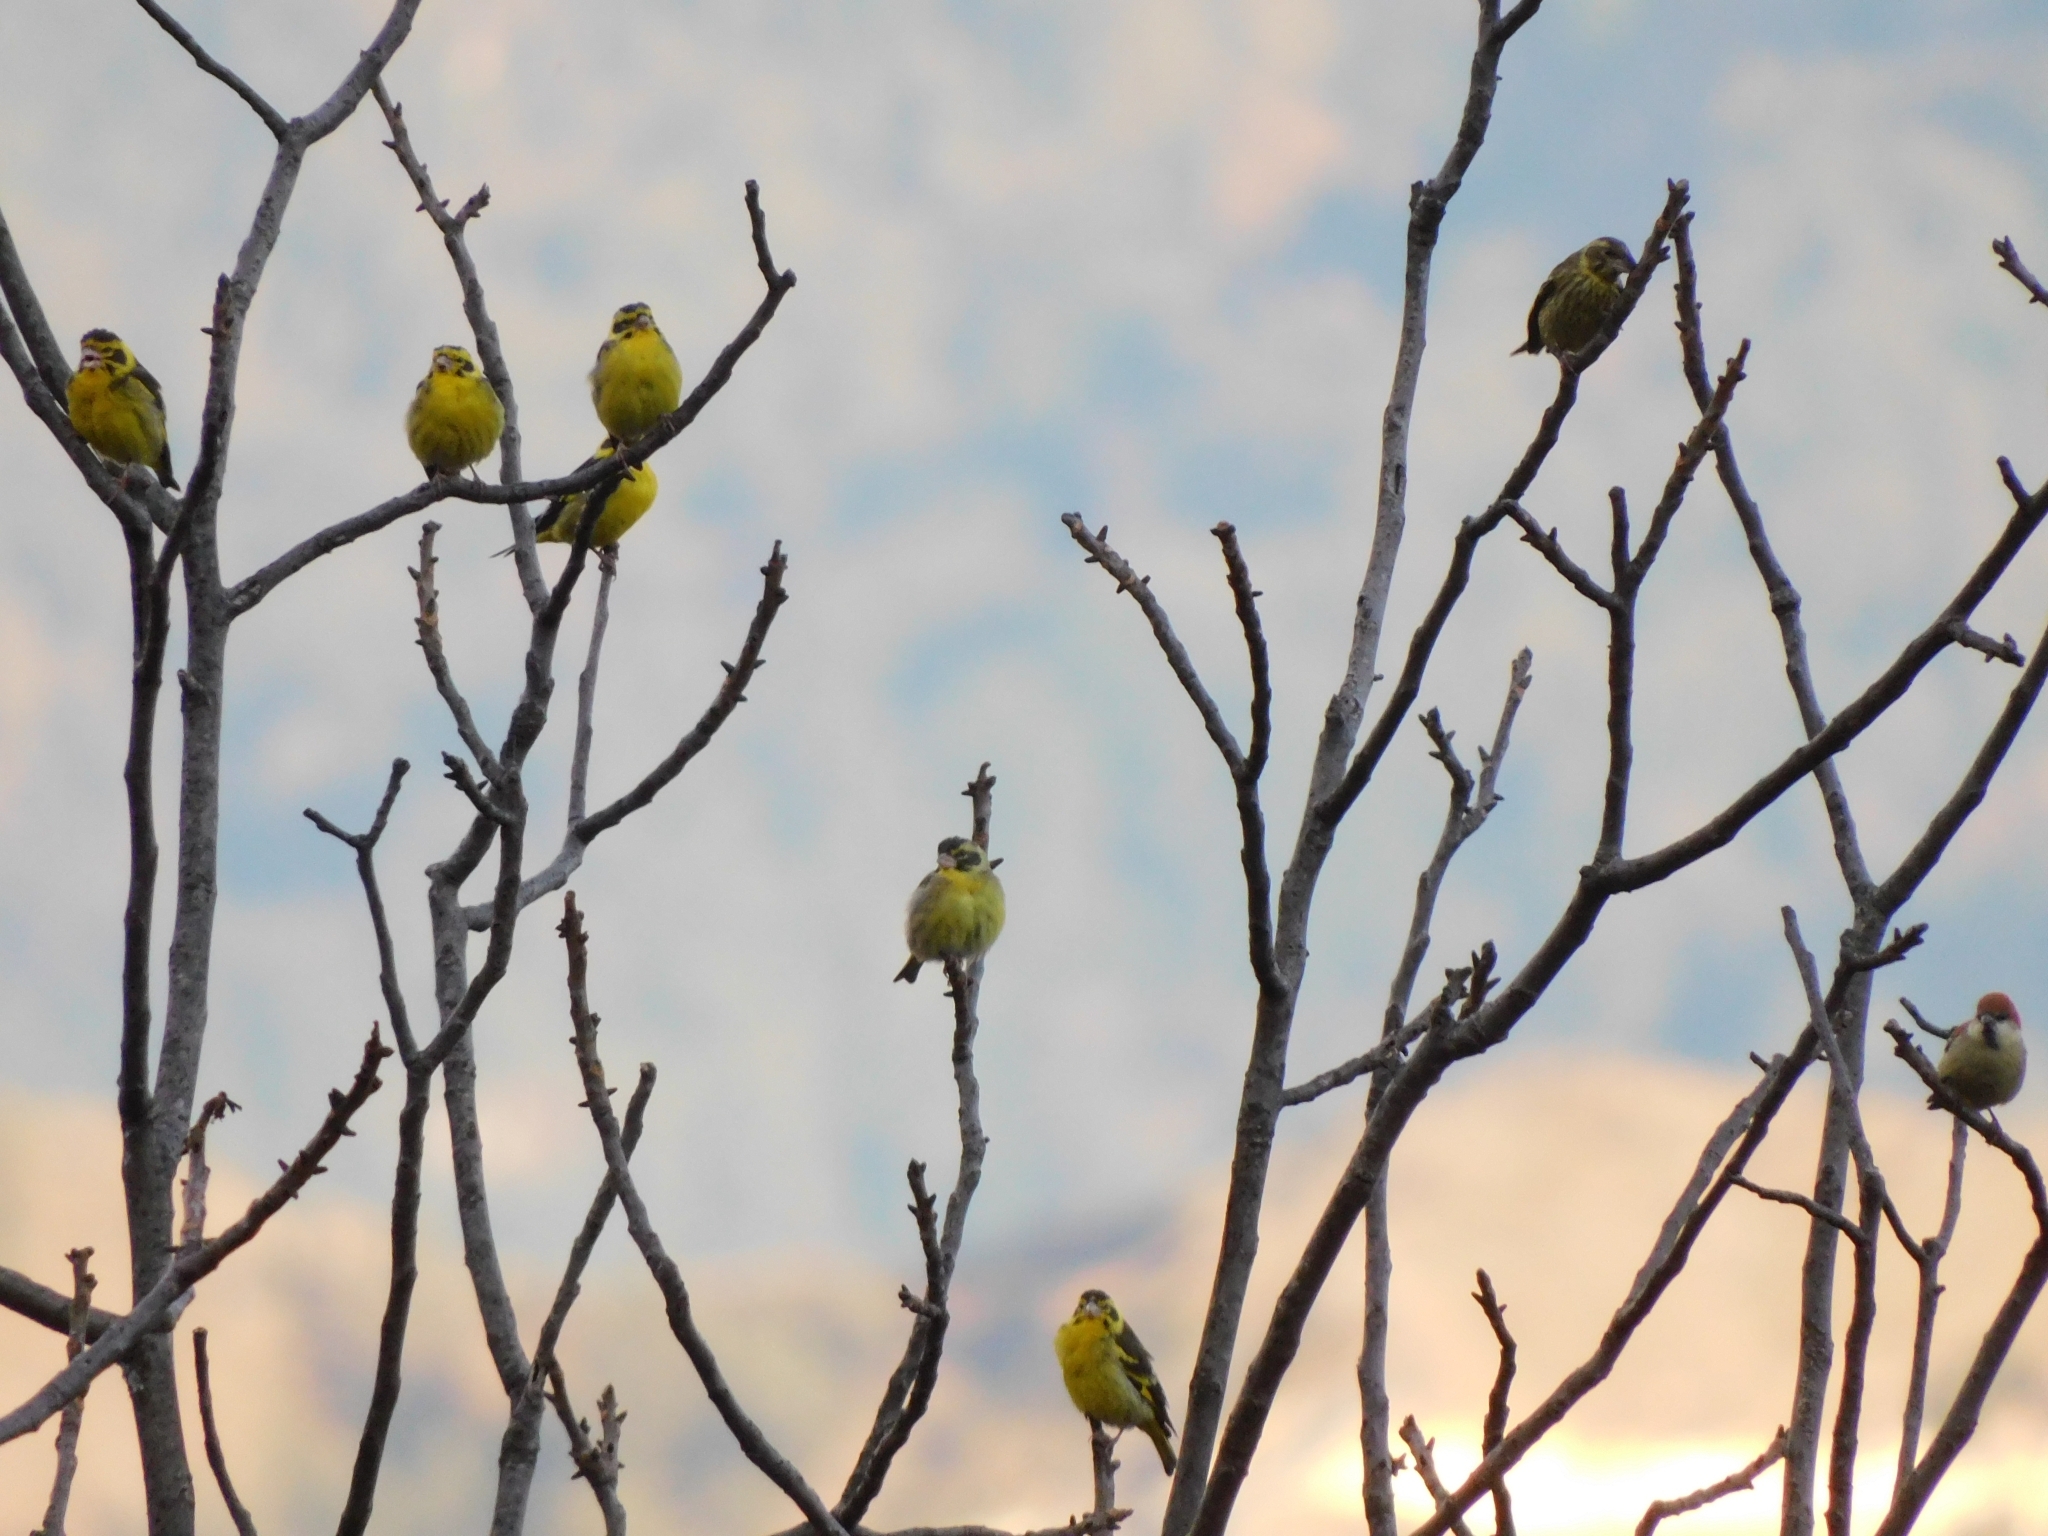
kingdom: Animalia
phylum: Chordata
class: Aves
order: Passeriformes
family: Fringillidae
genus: Chloris
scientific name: Chloris spinoides
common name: Yellow-breasted greenfinch
